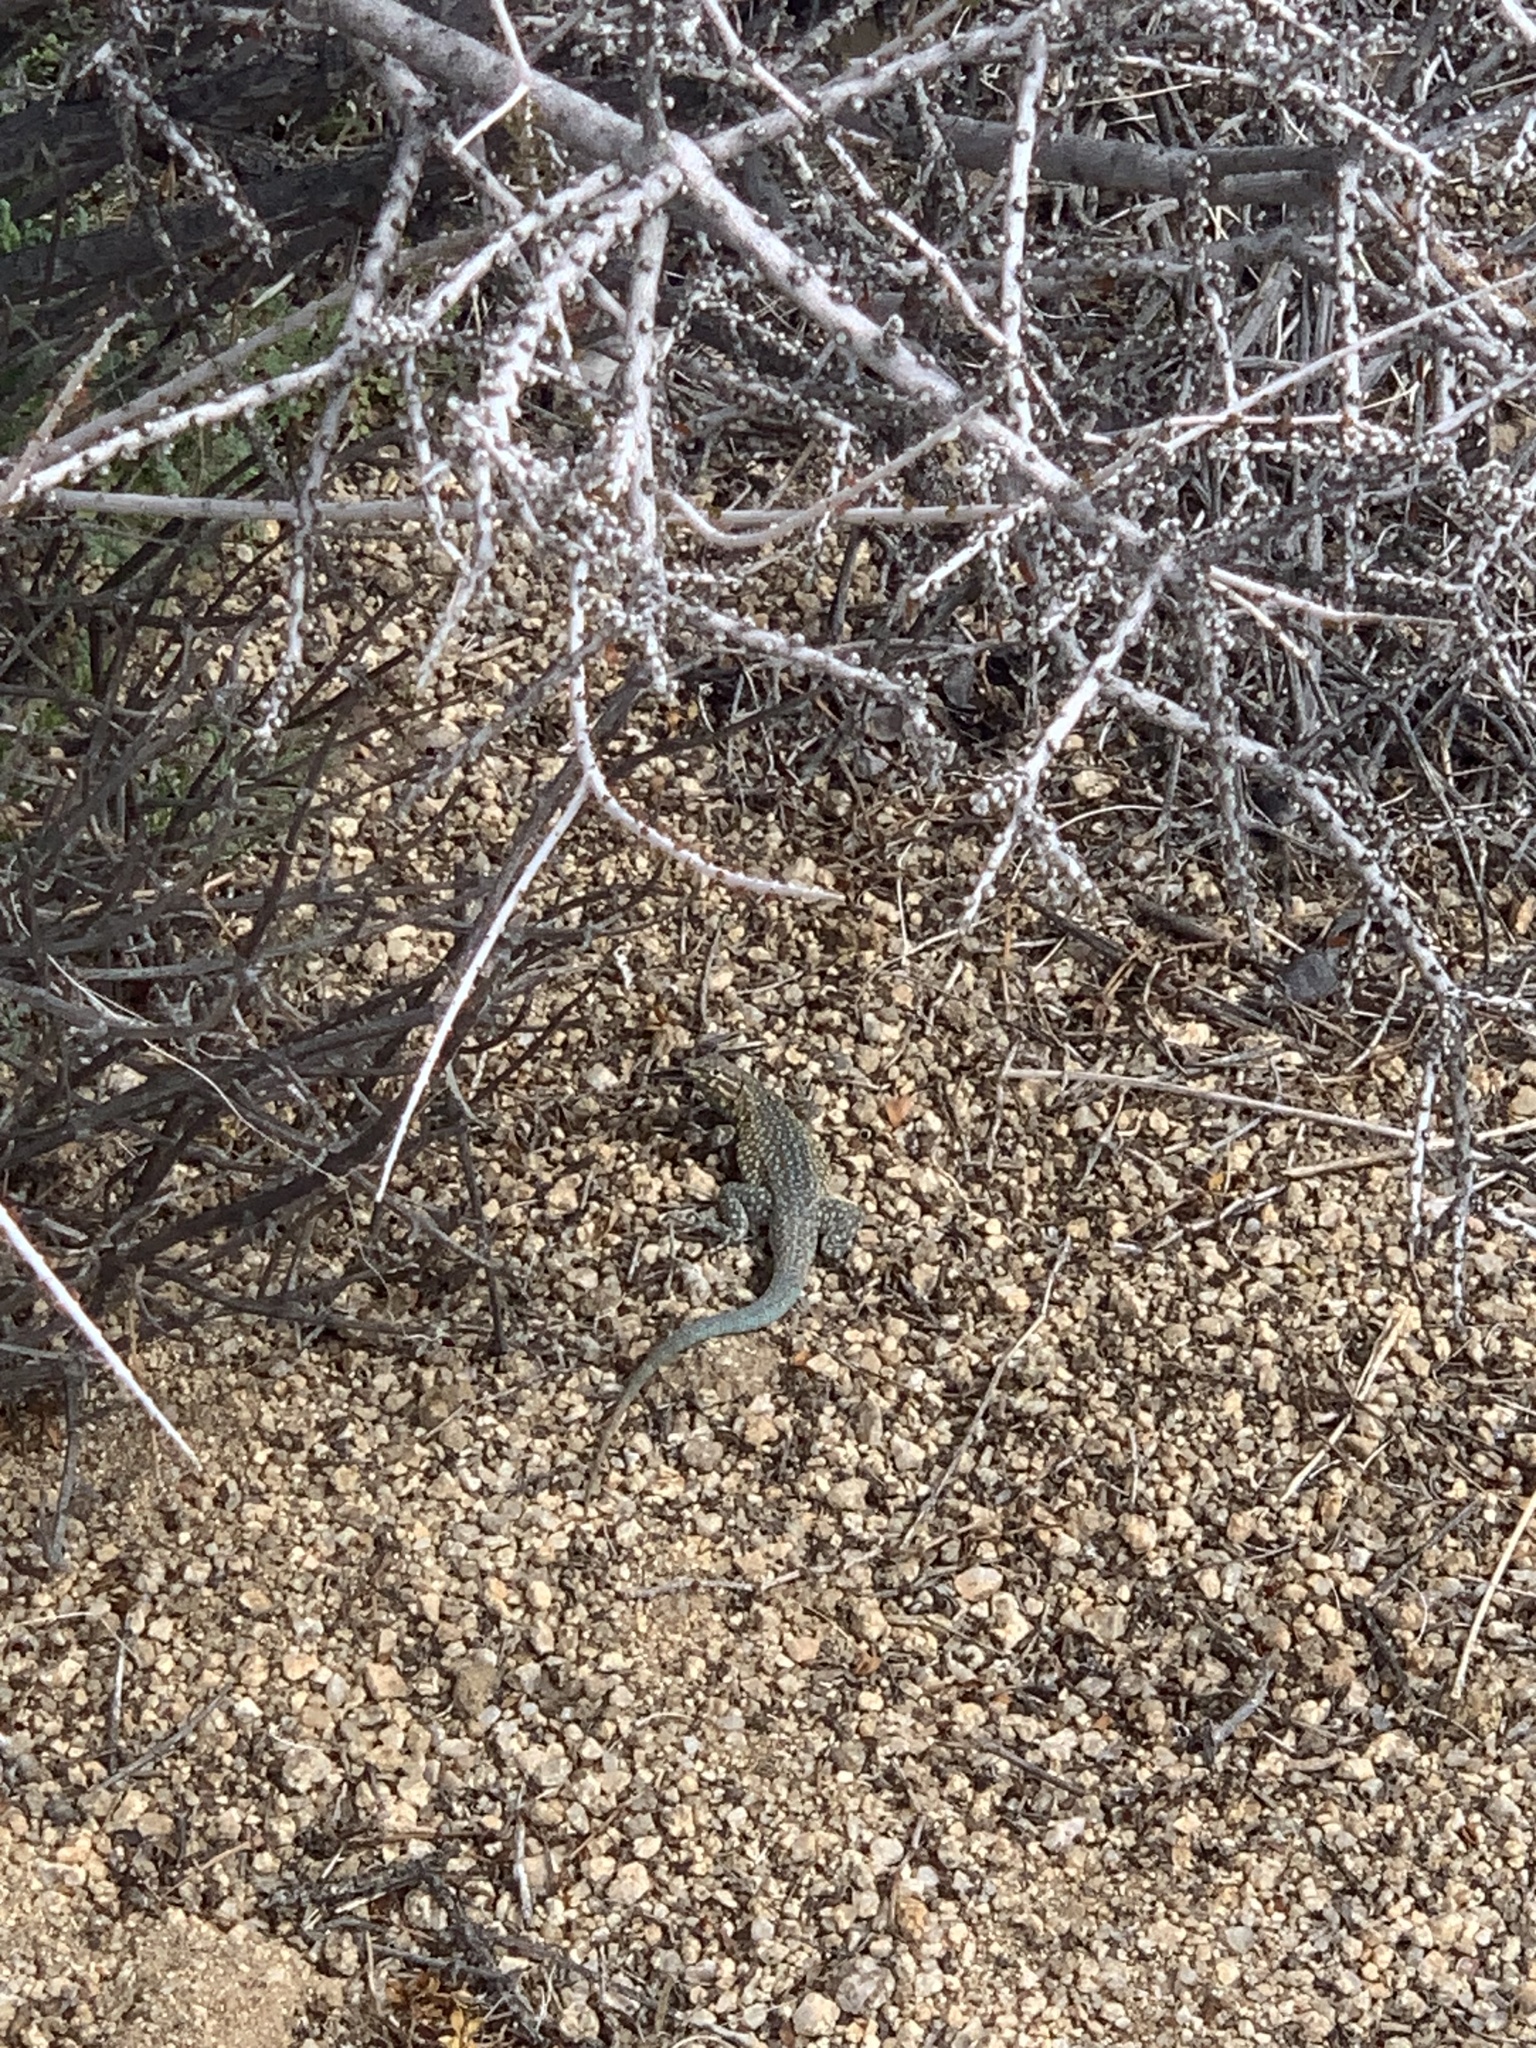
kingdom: Animalia
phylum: Chordata
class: Squamata
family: Phrynosomatidae
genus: Uta
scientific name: Uta stansburiana
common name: Side-blotched lizard
